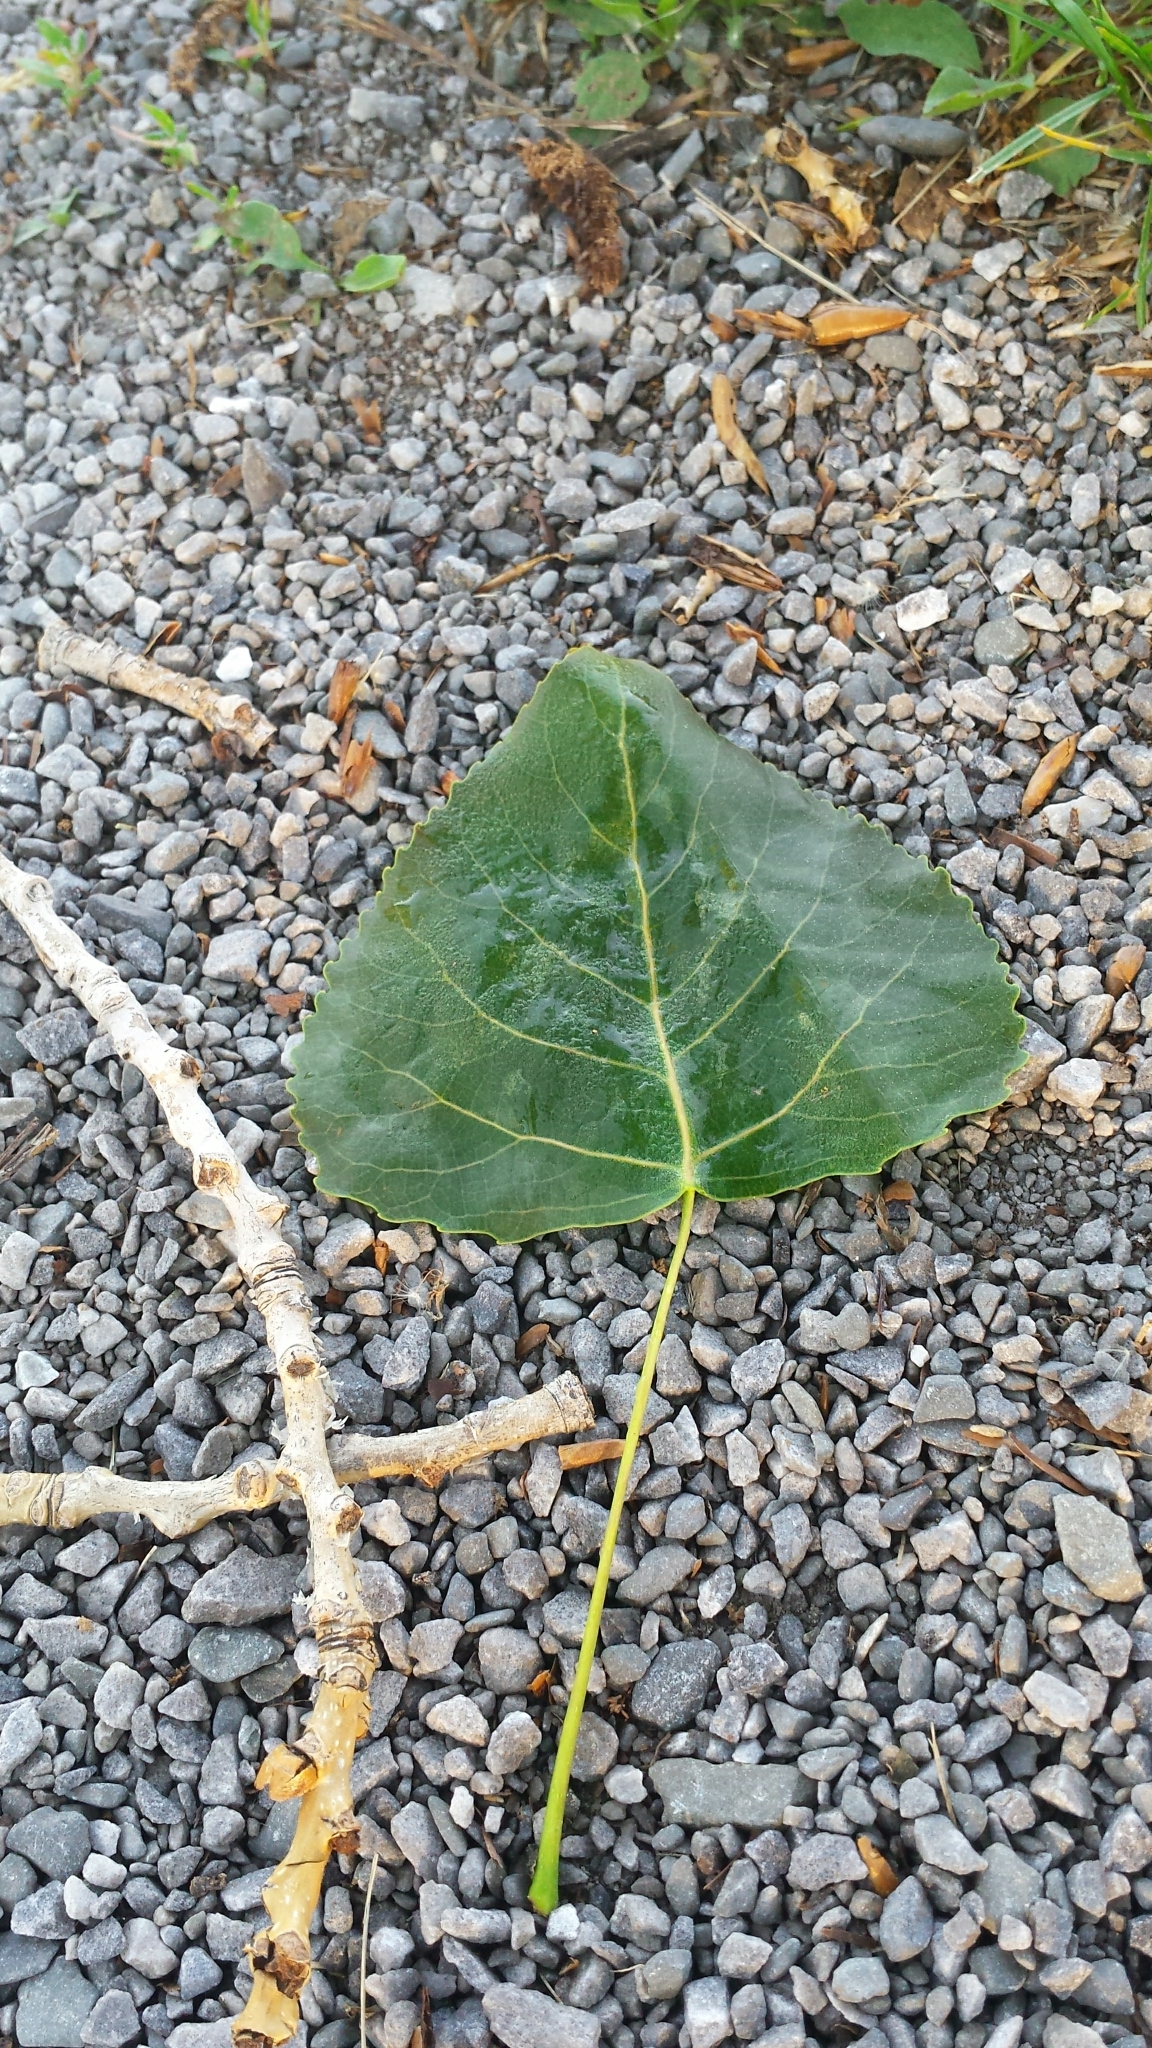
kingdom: Plantae
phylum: Tracheophyta
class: Magnoliopsida
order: Malpighiales
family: Salicaceae
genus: Populus
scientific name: Populus deltoides
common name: Eastern cottonwood
